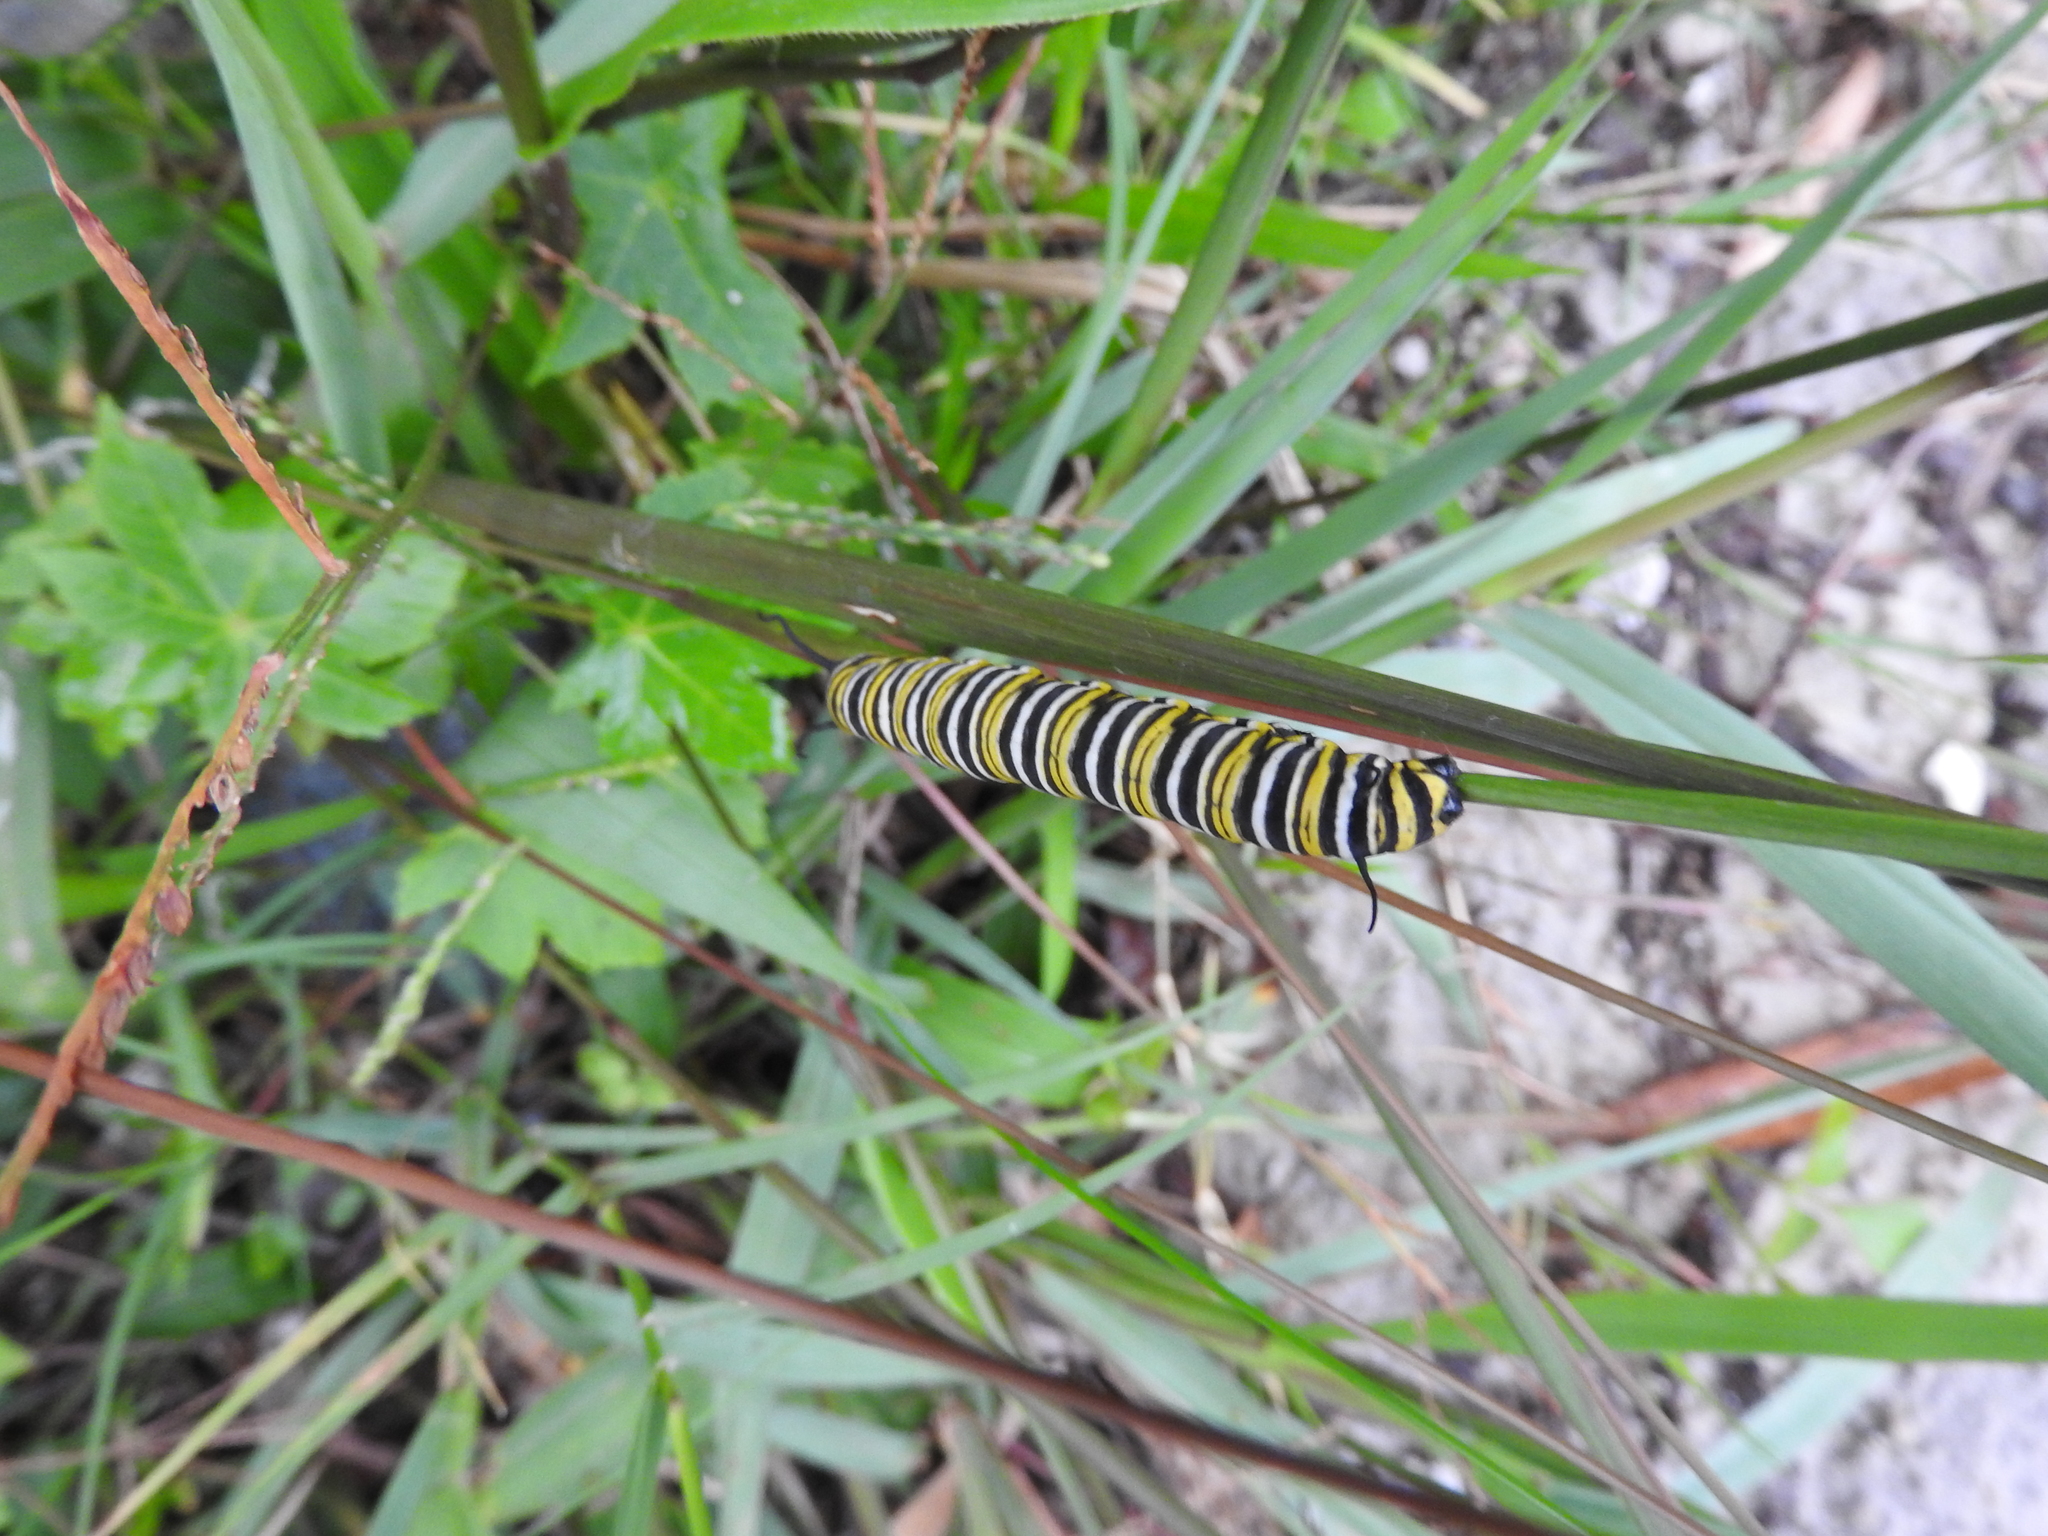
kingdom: Animalia
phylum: Arthropoda
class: Insecta
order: Lepidoptera
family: Nymphalidae
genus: Danaus
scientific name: Danaus plexippus
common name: Monarch
